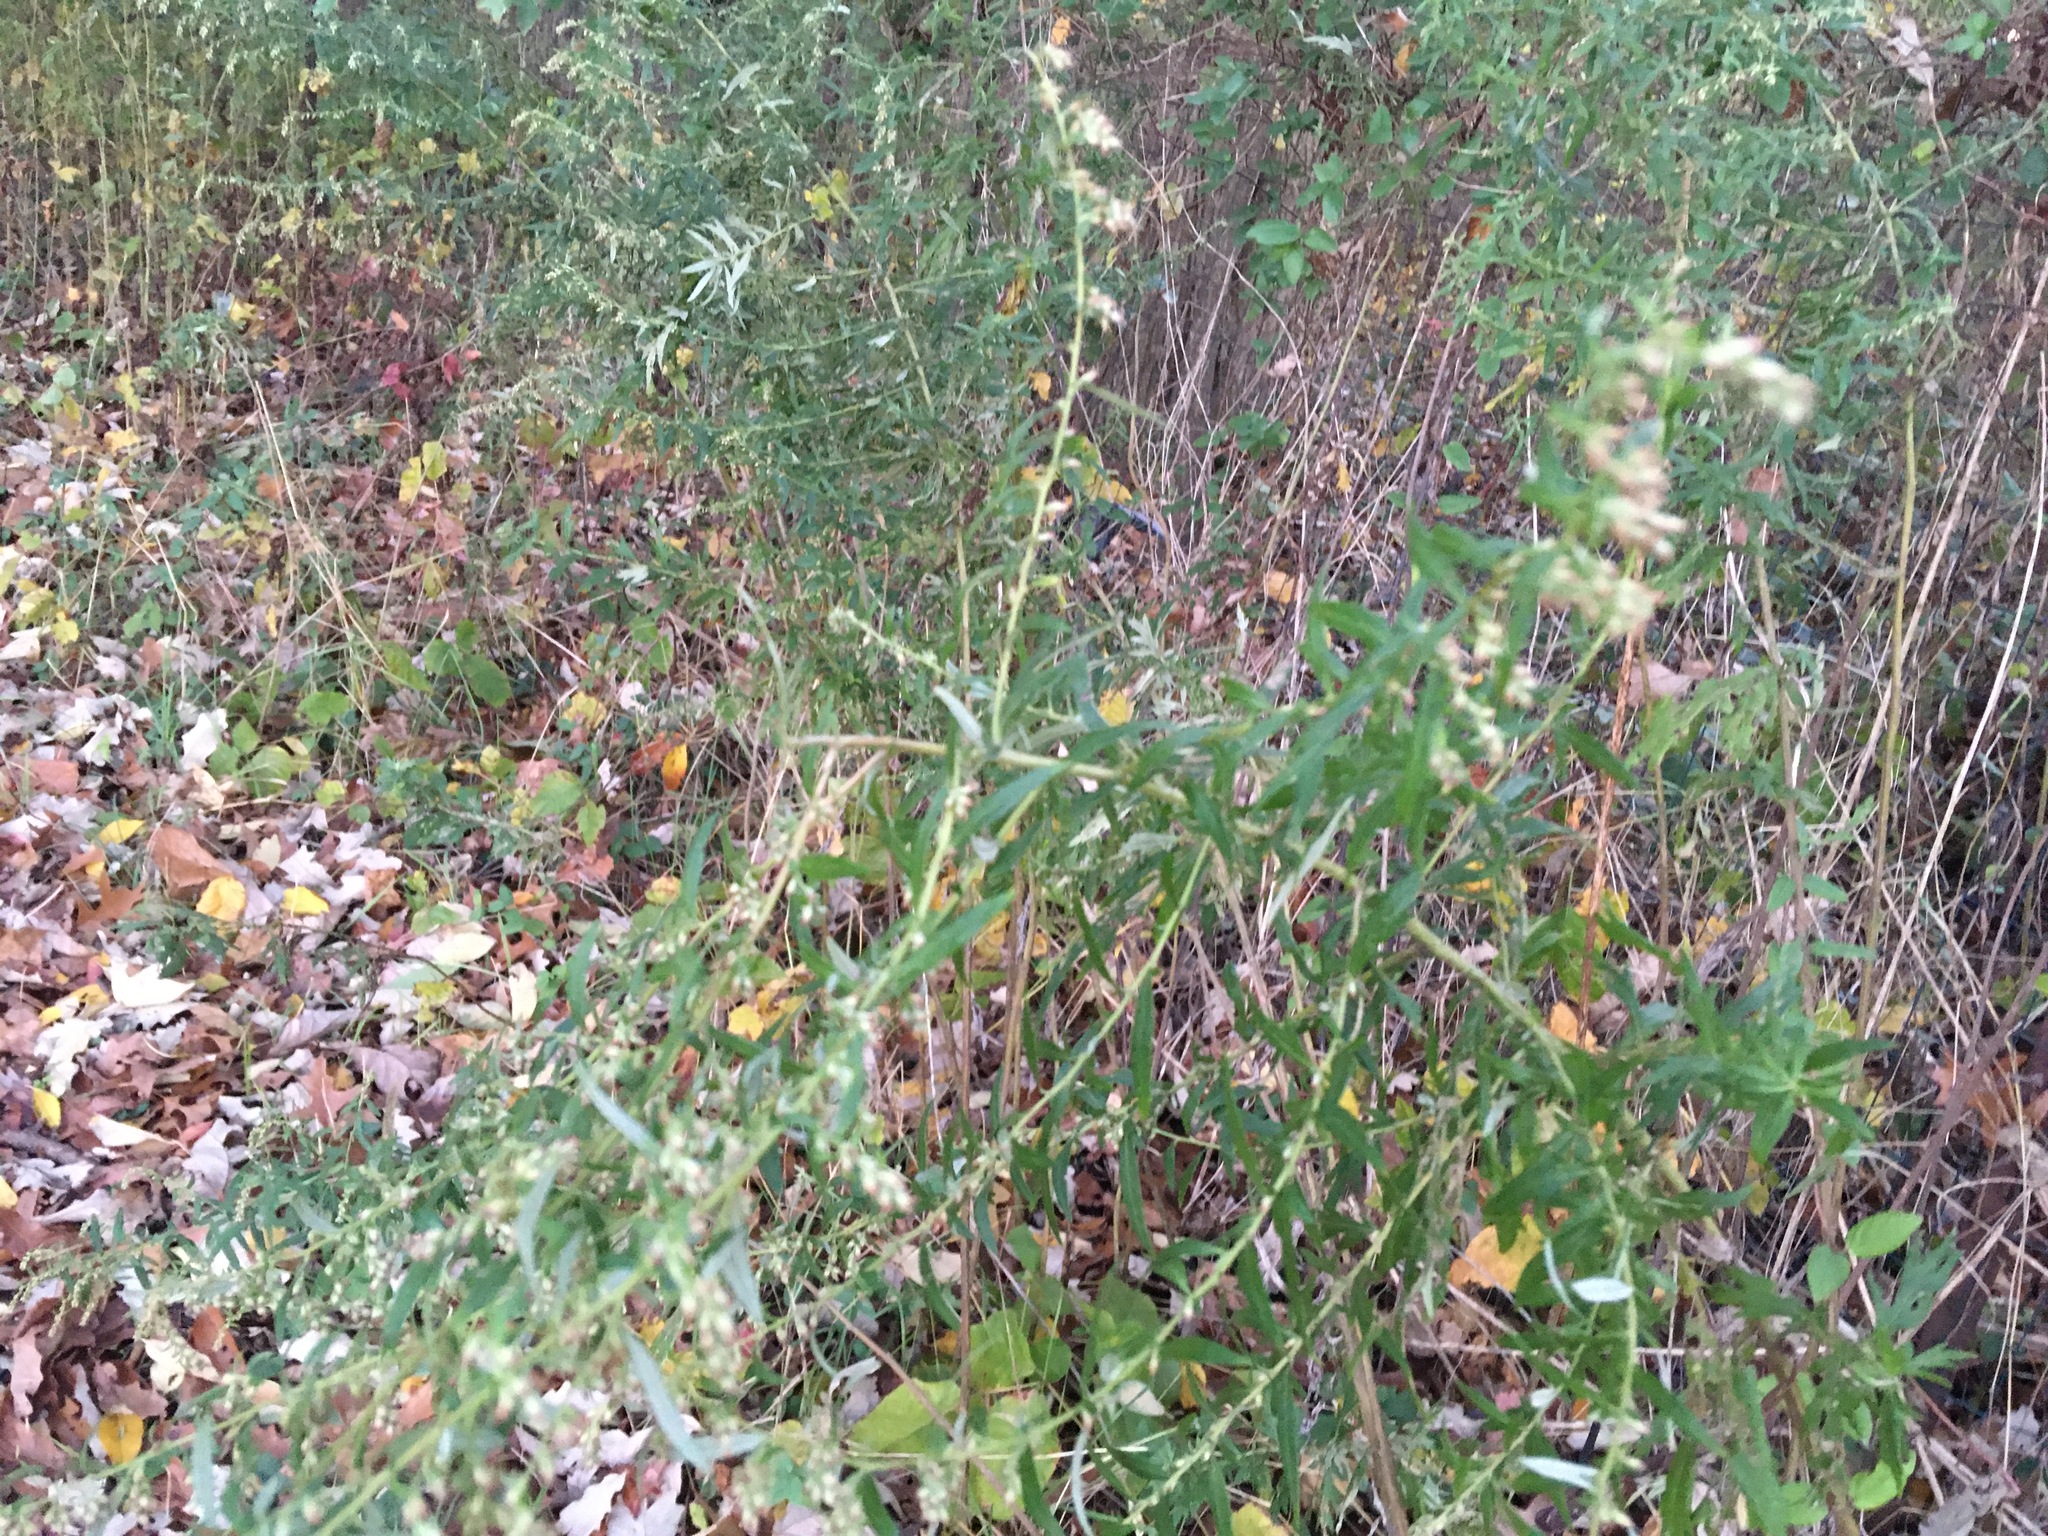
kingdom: Plantae
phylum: Tracheophyta
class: Magnoliopsida
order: Asterales
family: Asteraceae
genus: Artemisia
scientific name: Artemisia vulgaris
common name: Mugwort
